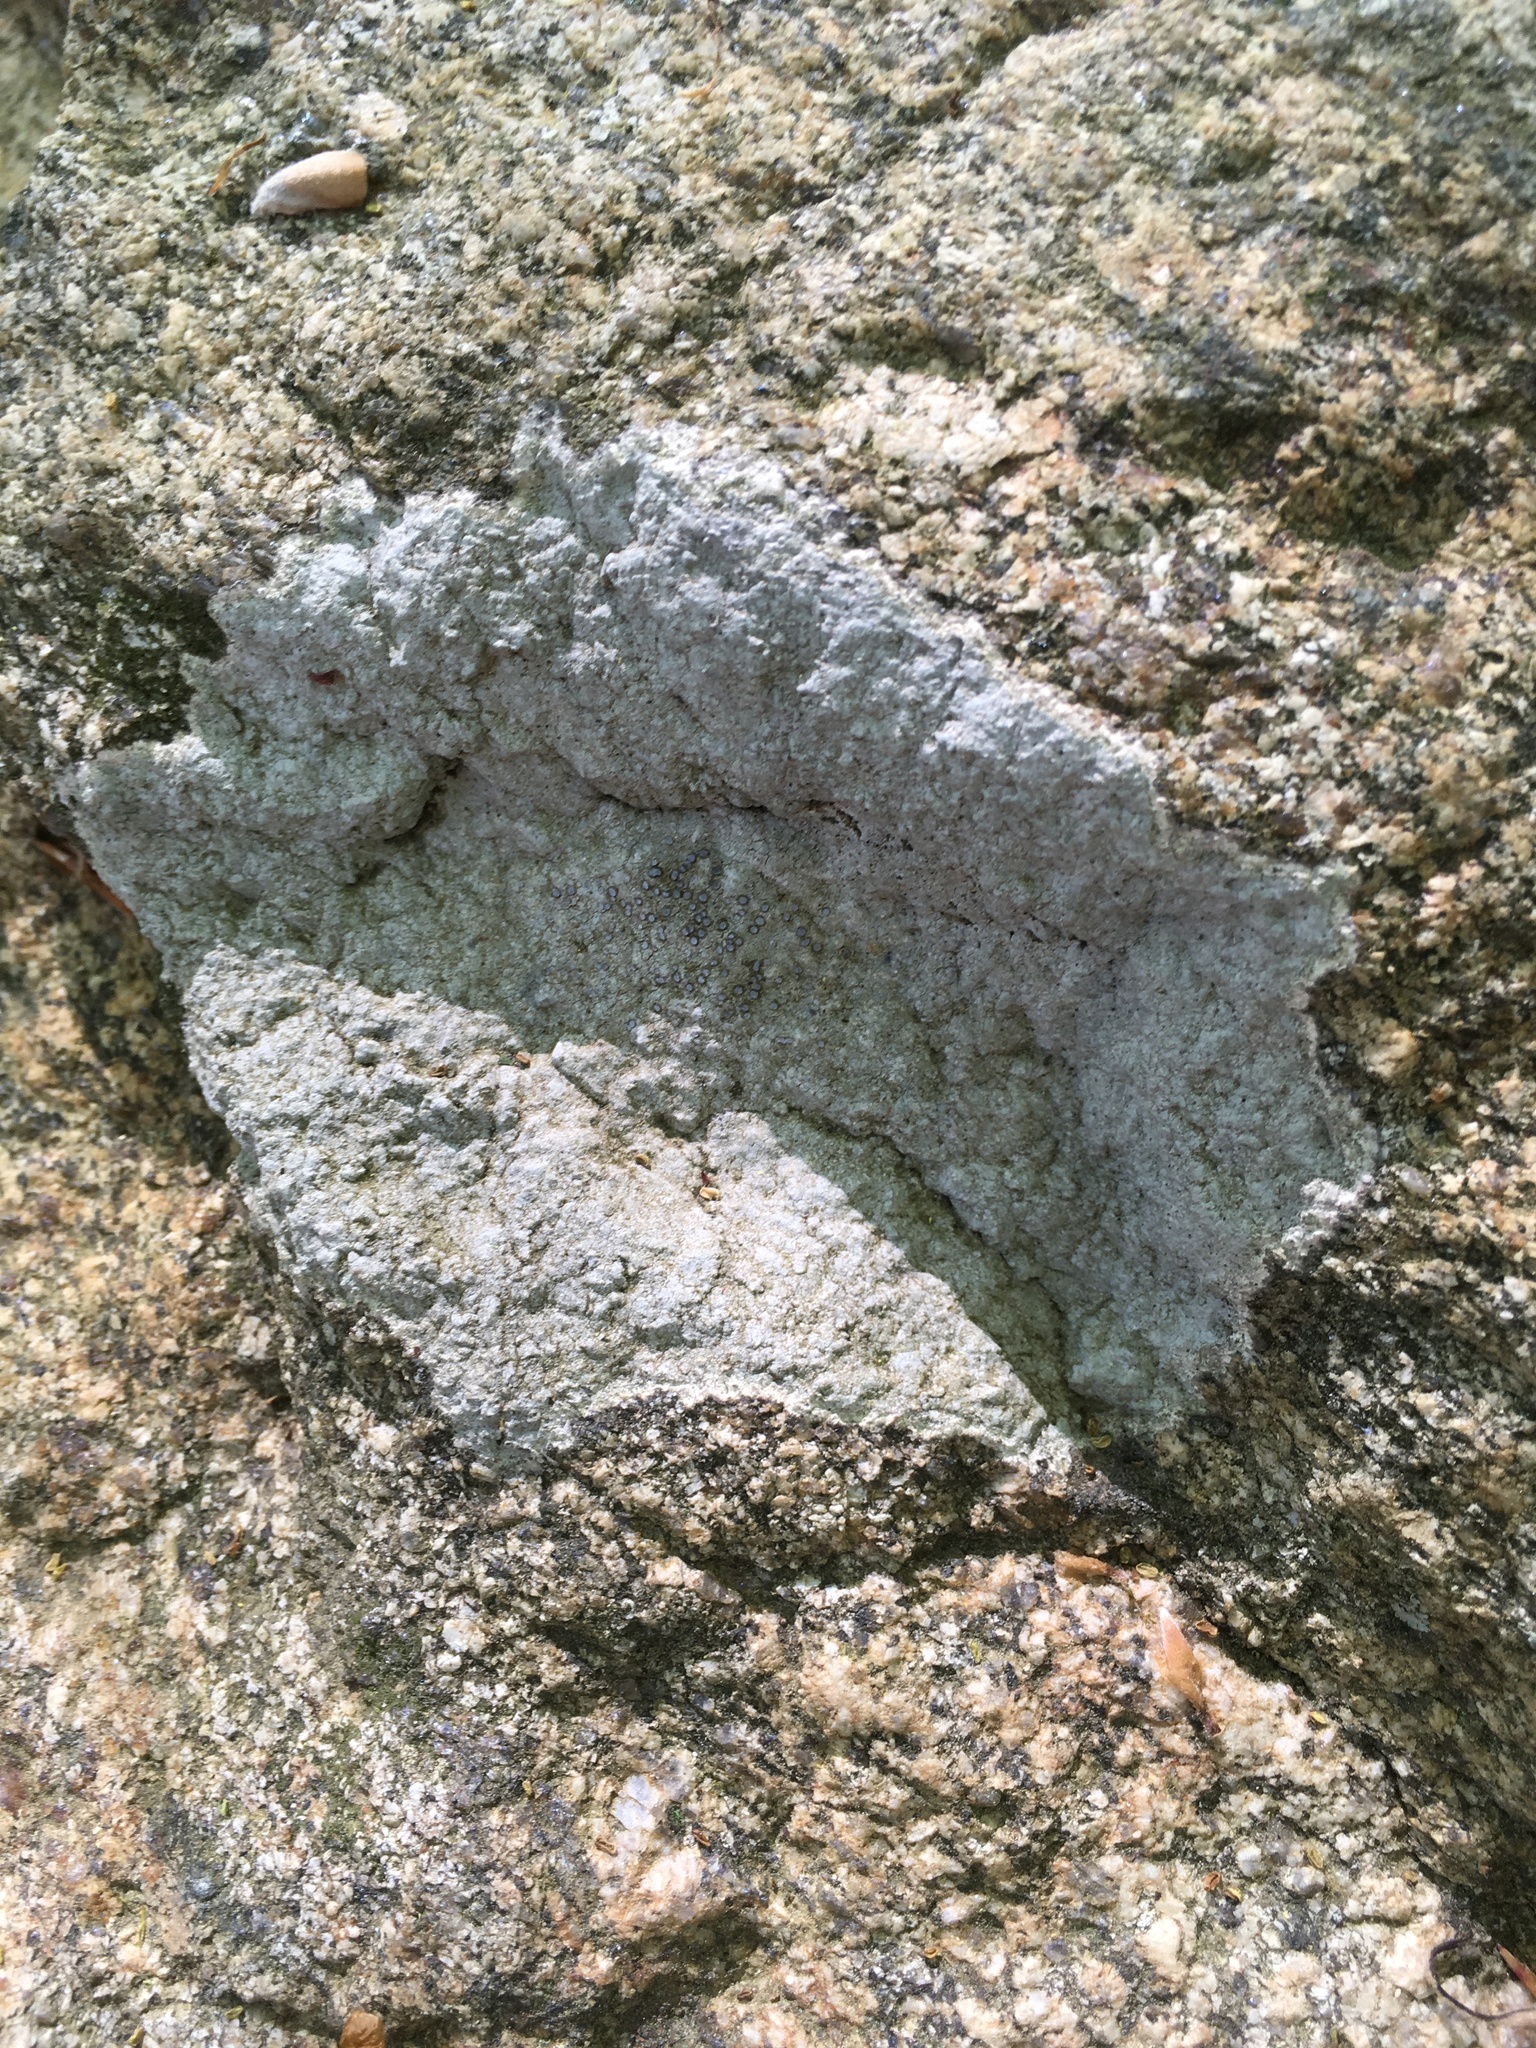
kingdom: Fungi
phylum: Ascomycota
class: Lecanoromycetes
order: Lecideales
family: Lecideaceae
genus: Porpidia
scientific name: Porpidia albocaerulescens
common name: Smokey-eyed boulder lichen
